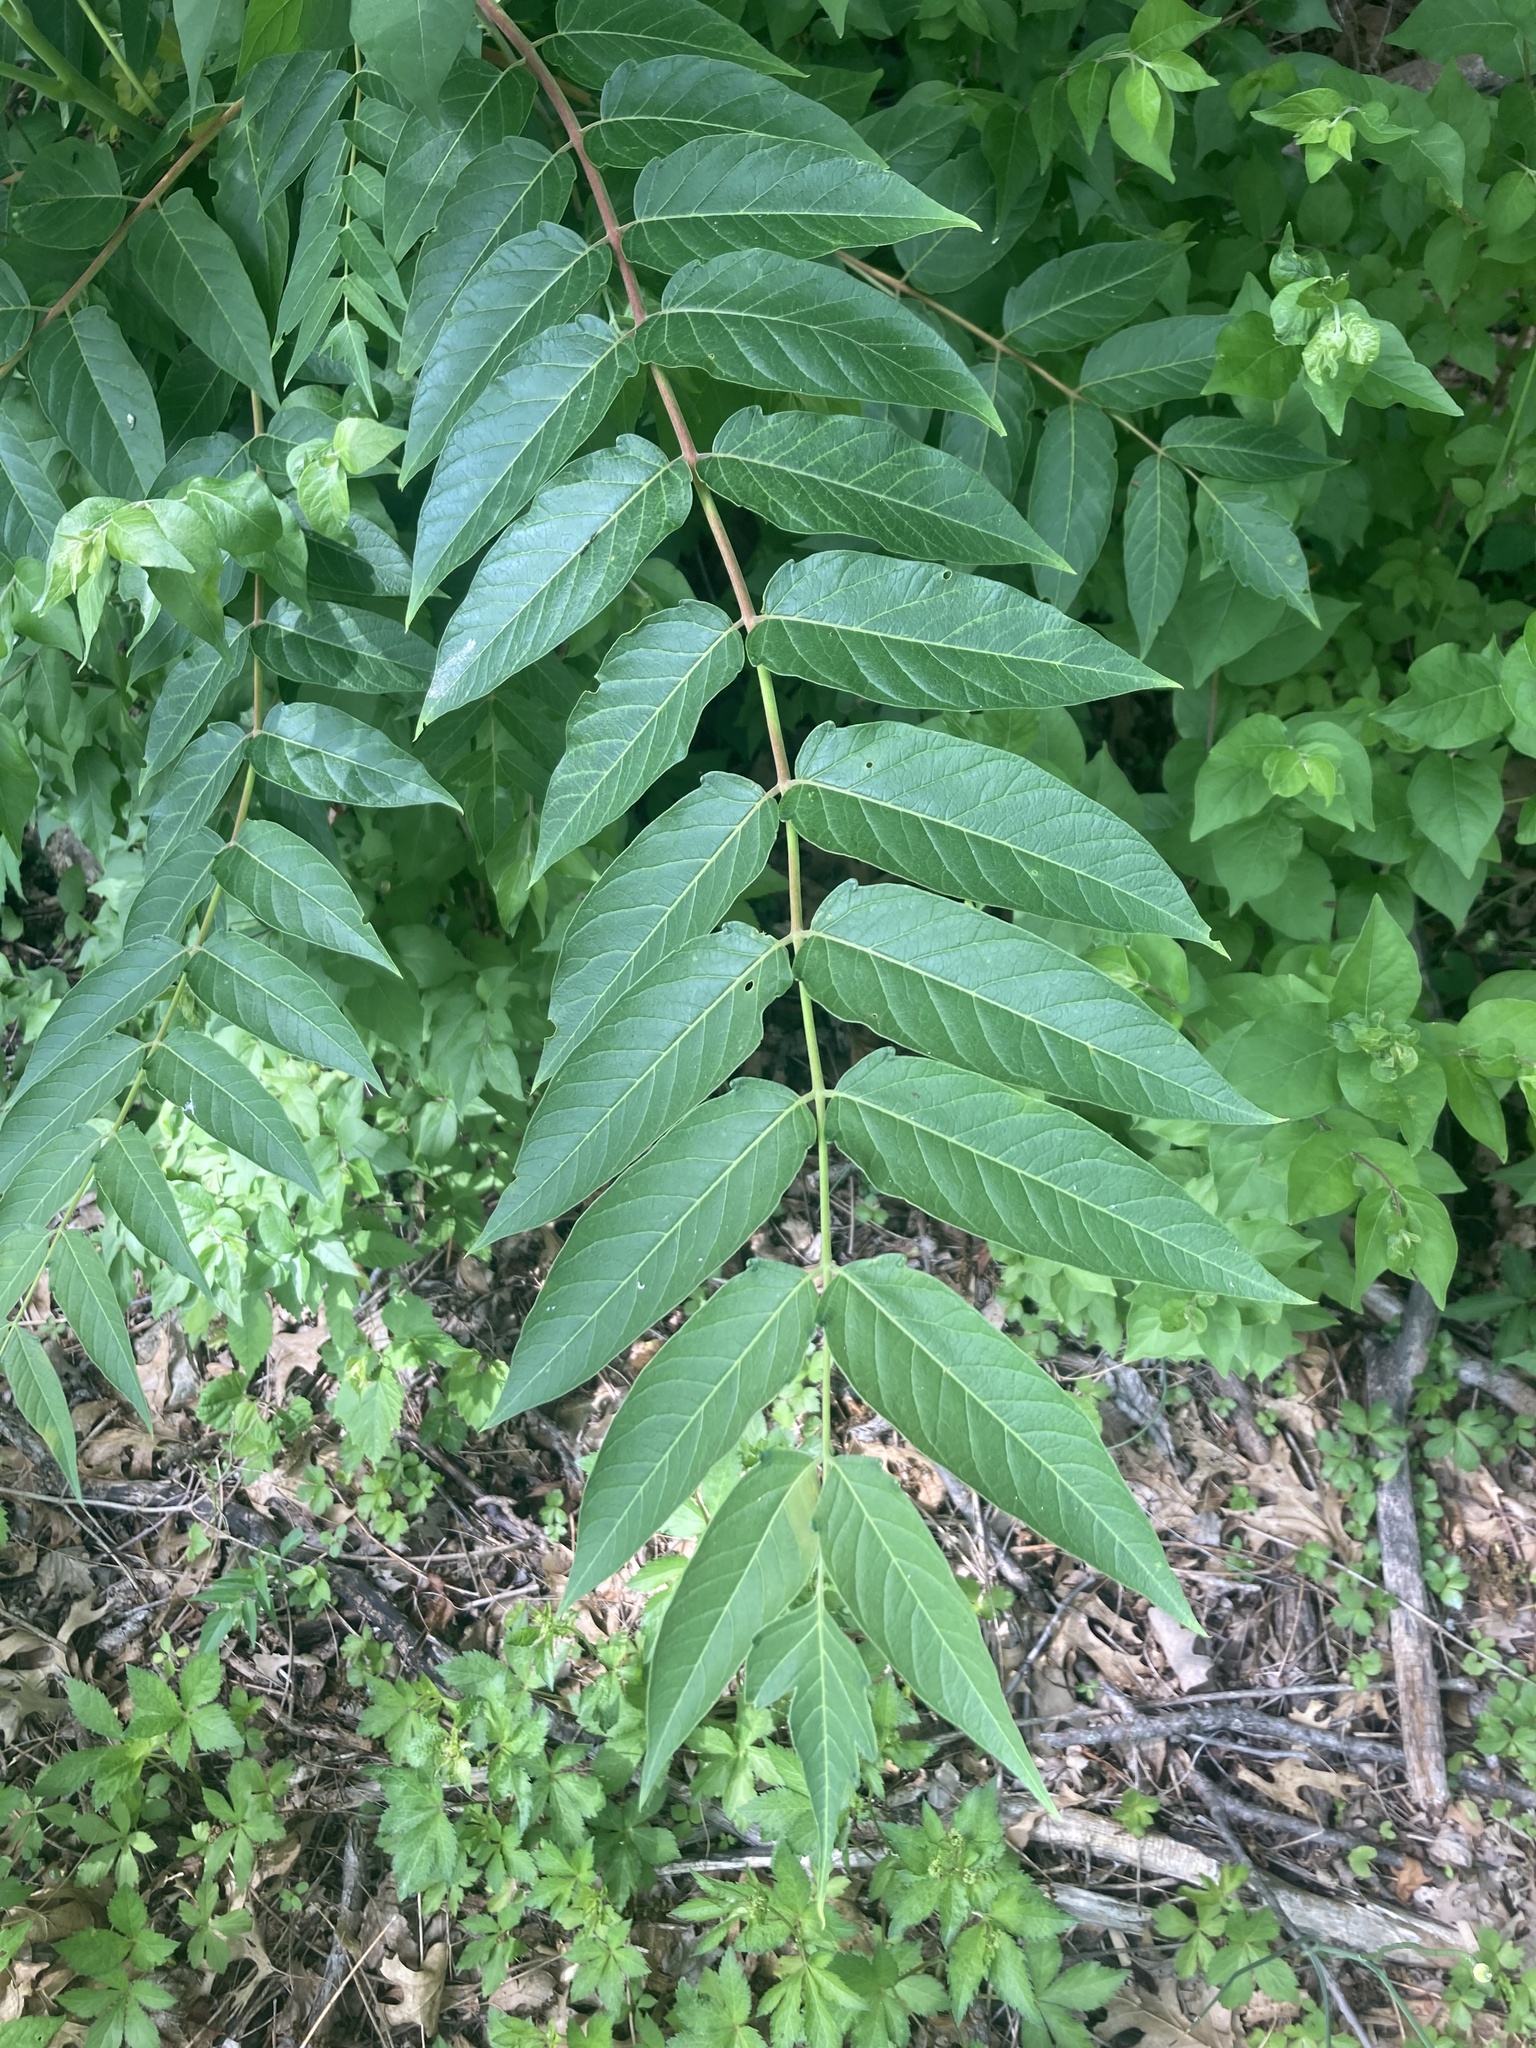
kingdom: Plantae
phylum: Tracheophyta
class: Magnoliopsida
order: Sapindales
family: Simaroubaceae
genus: Ailanthus
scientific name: Ailanthus altissima
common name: Tree-of-heaven
